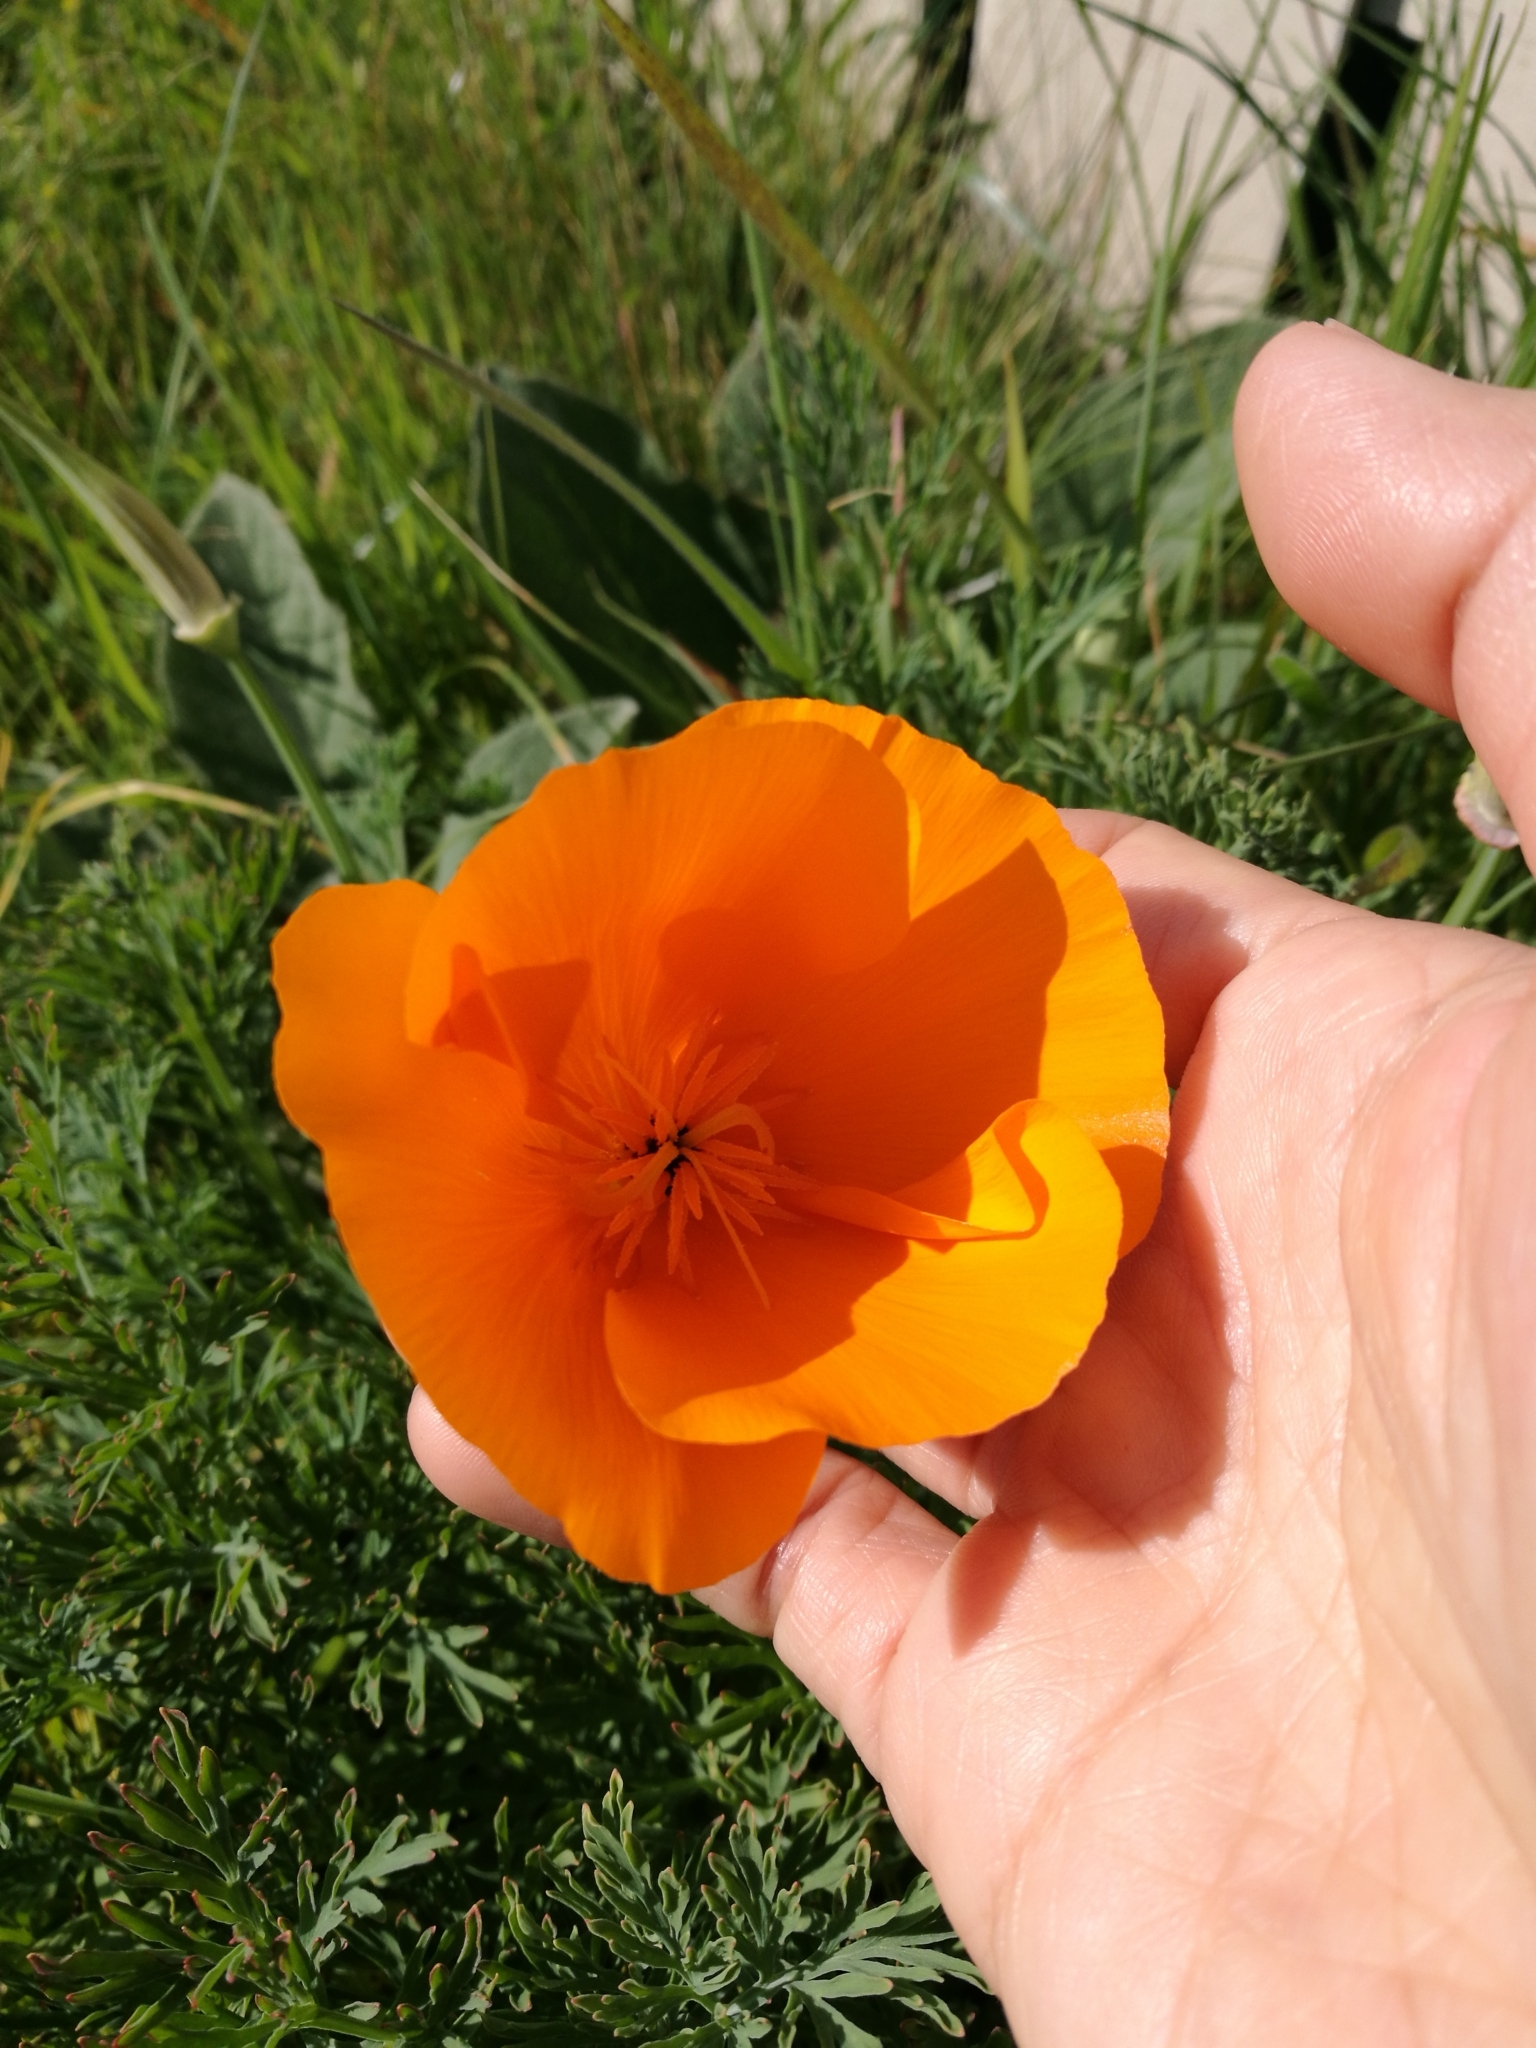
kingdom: Plantae
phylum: Tracheophyta
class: Magnoliopsida
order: Ranunculales
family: Papaveraceae
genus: Eschscholzia
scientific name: Eschscholzia californica
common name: California poppy
